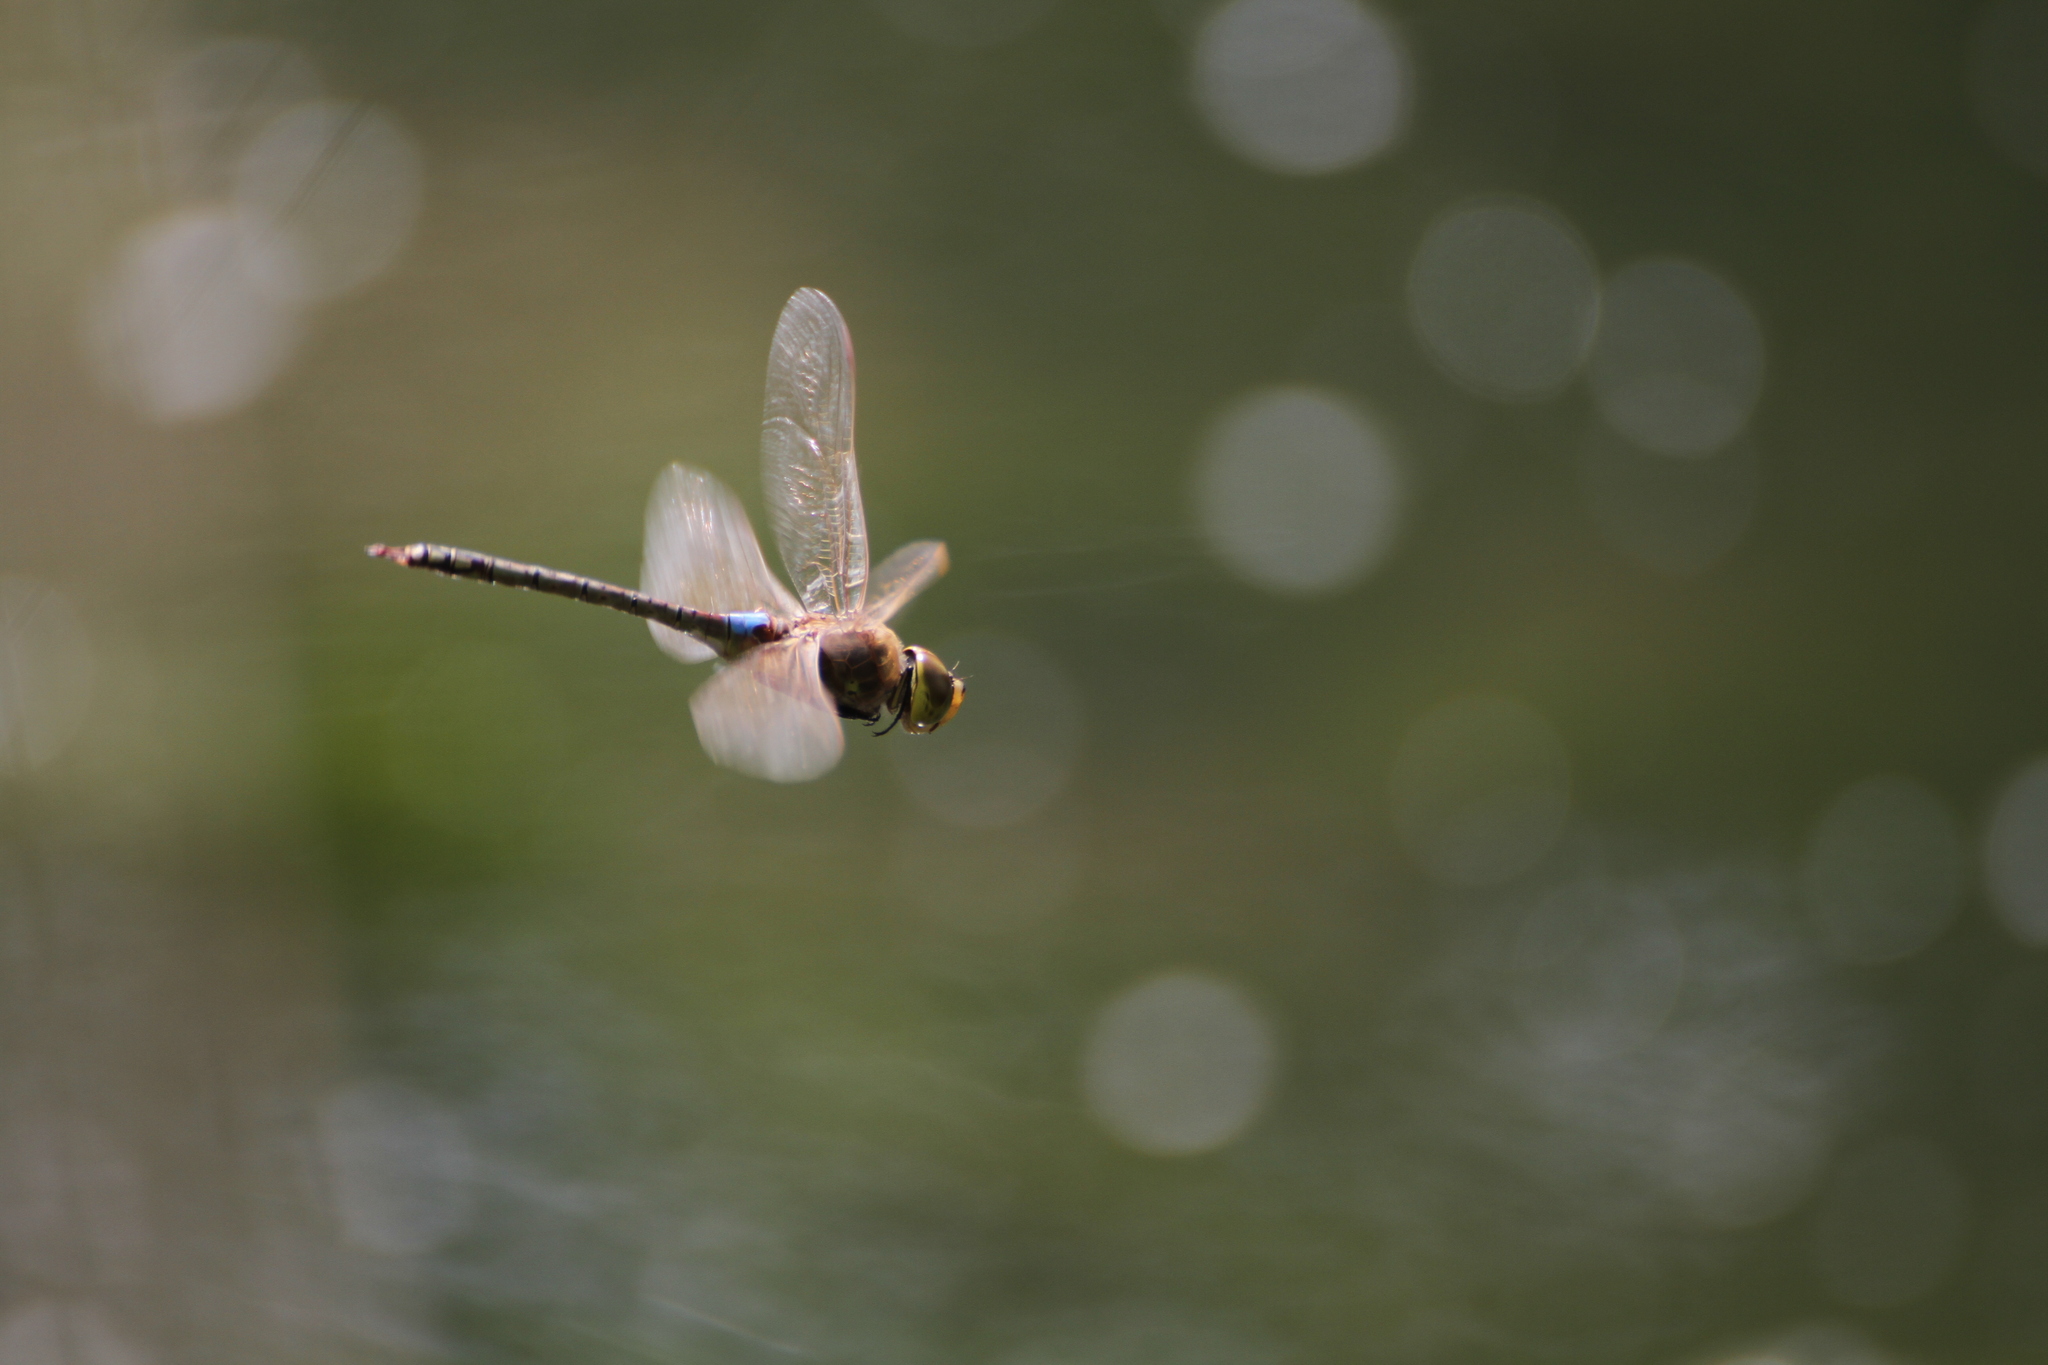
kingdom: Animalia
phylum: Arthropoda
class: Insecta
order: Odonata
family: Aeshnidae
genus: Anax
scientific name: Anax ephippiger
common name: Vagrant emperor
